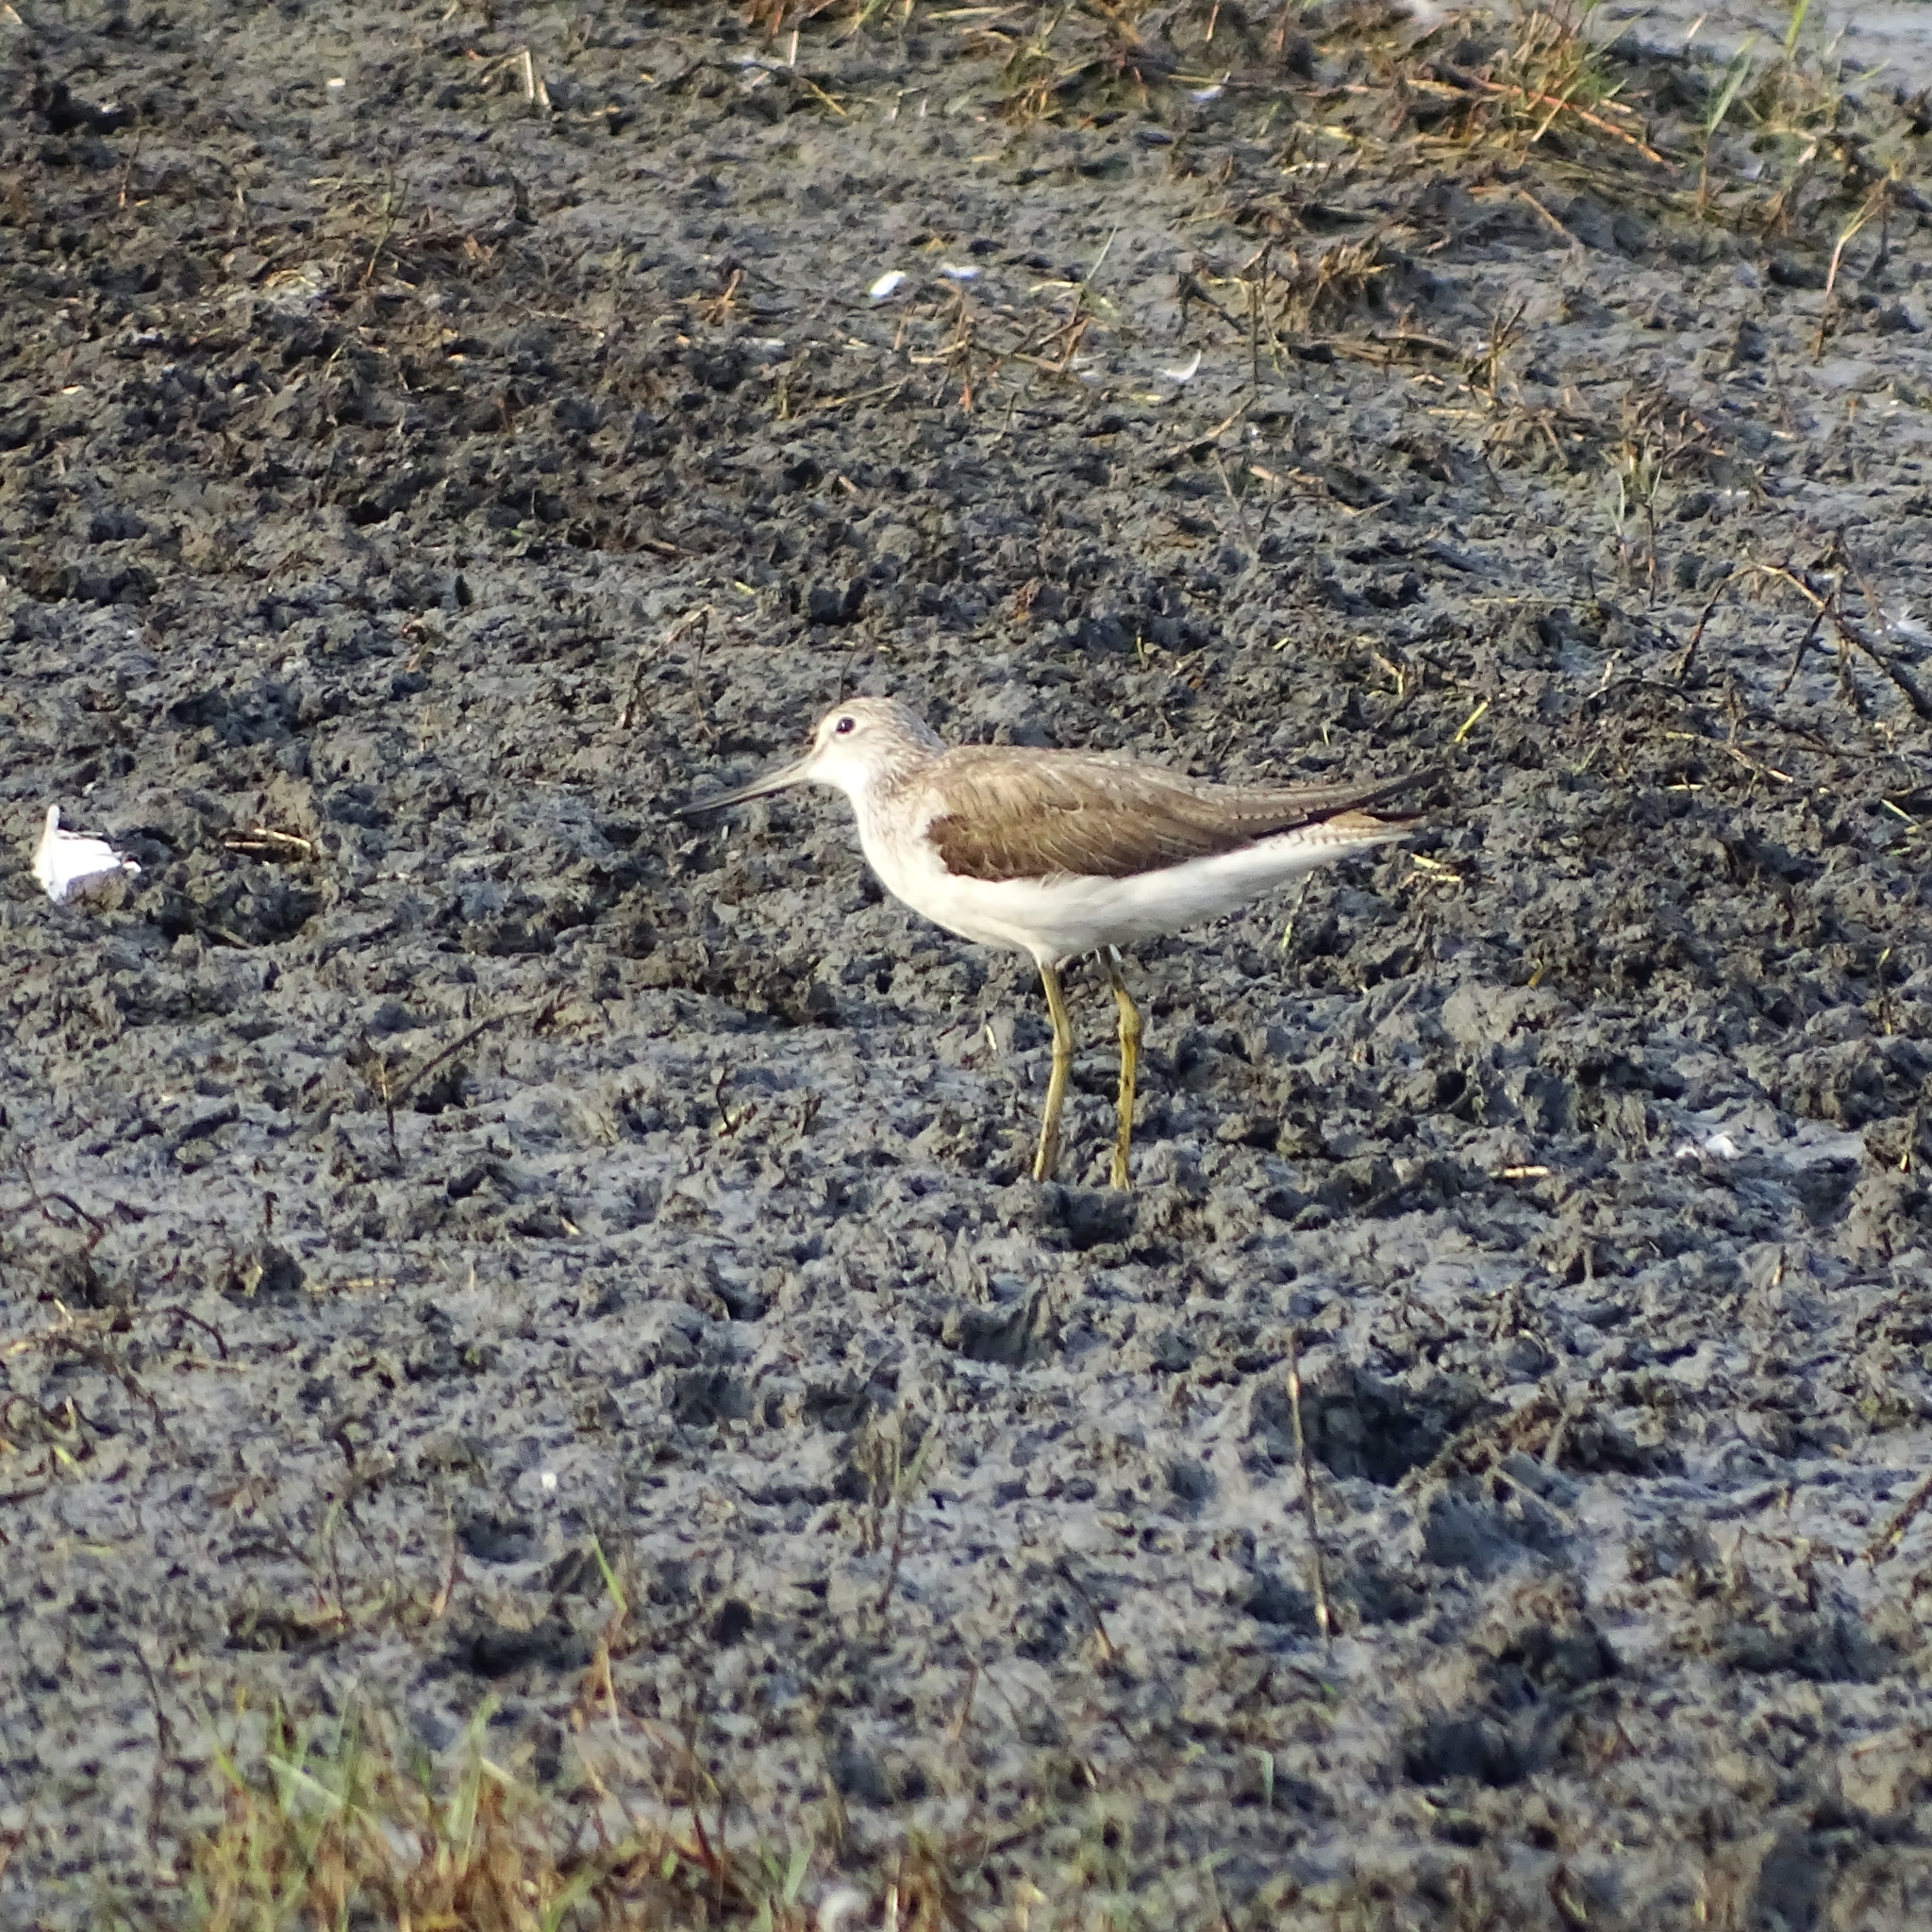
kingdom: Animalia
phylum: Chordata
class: Aves
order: Charadriiformes
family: Scolopacidae
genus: Tringa
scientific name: Tringa nebularia
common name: Common greenshank
